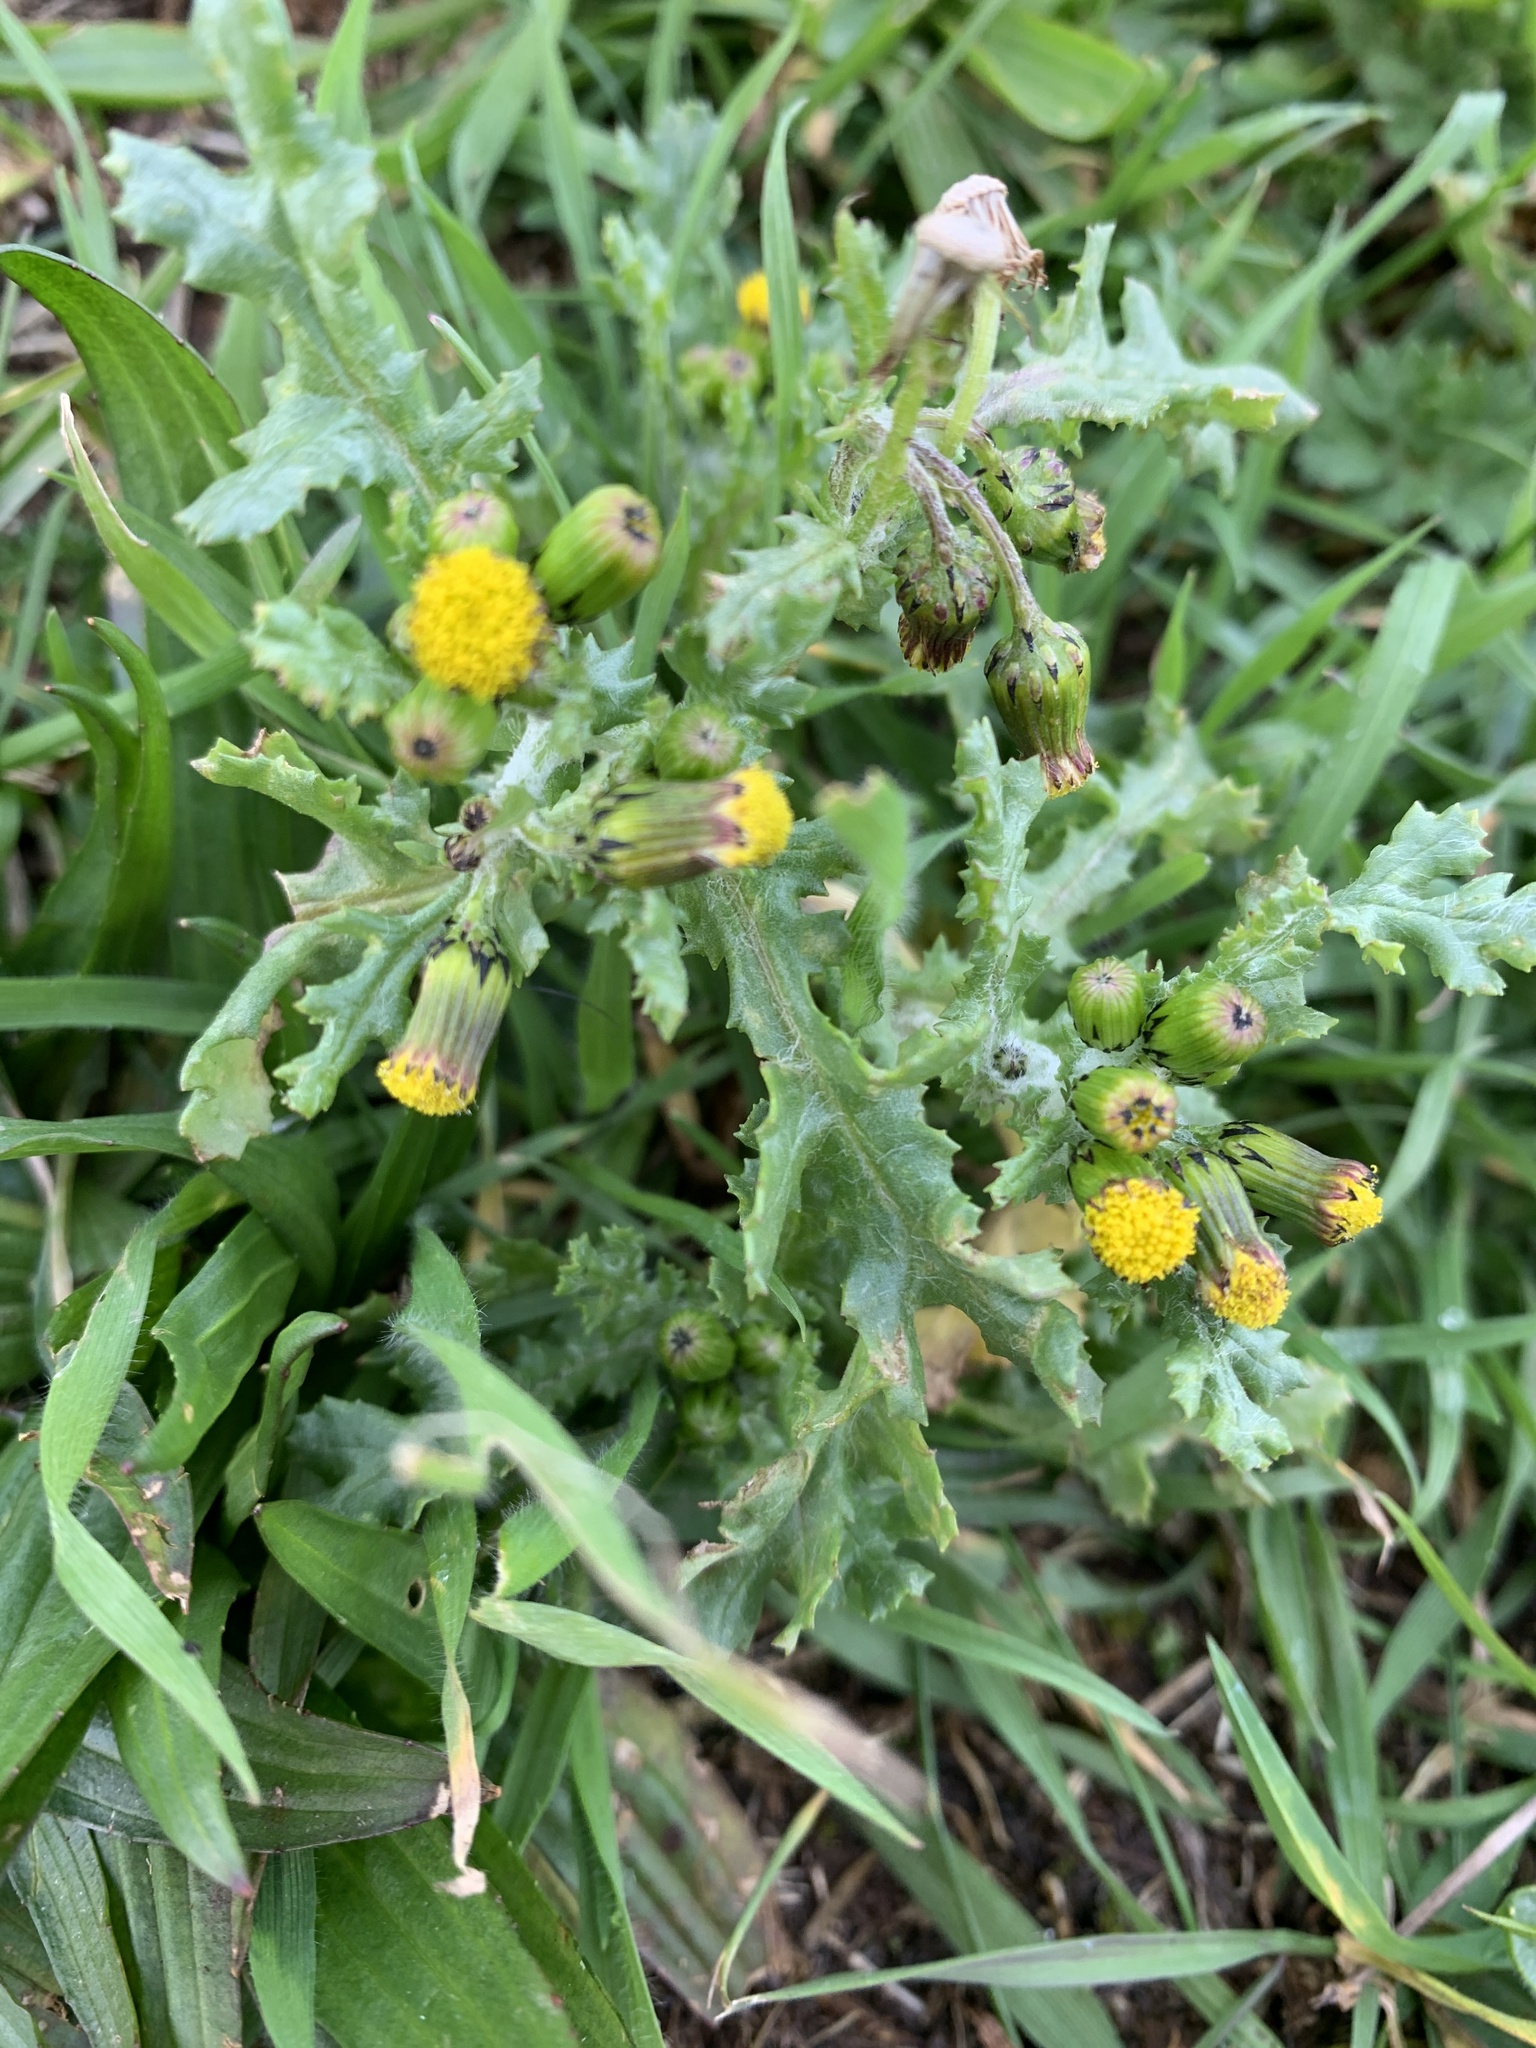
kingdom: Plantae
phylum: Tracheophyta
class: Magnoliopsida
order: Asterales
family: Asteraceae
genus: Senecio
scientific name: Senecio vulgaris
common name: Old-man-in-the-spring
